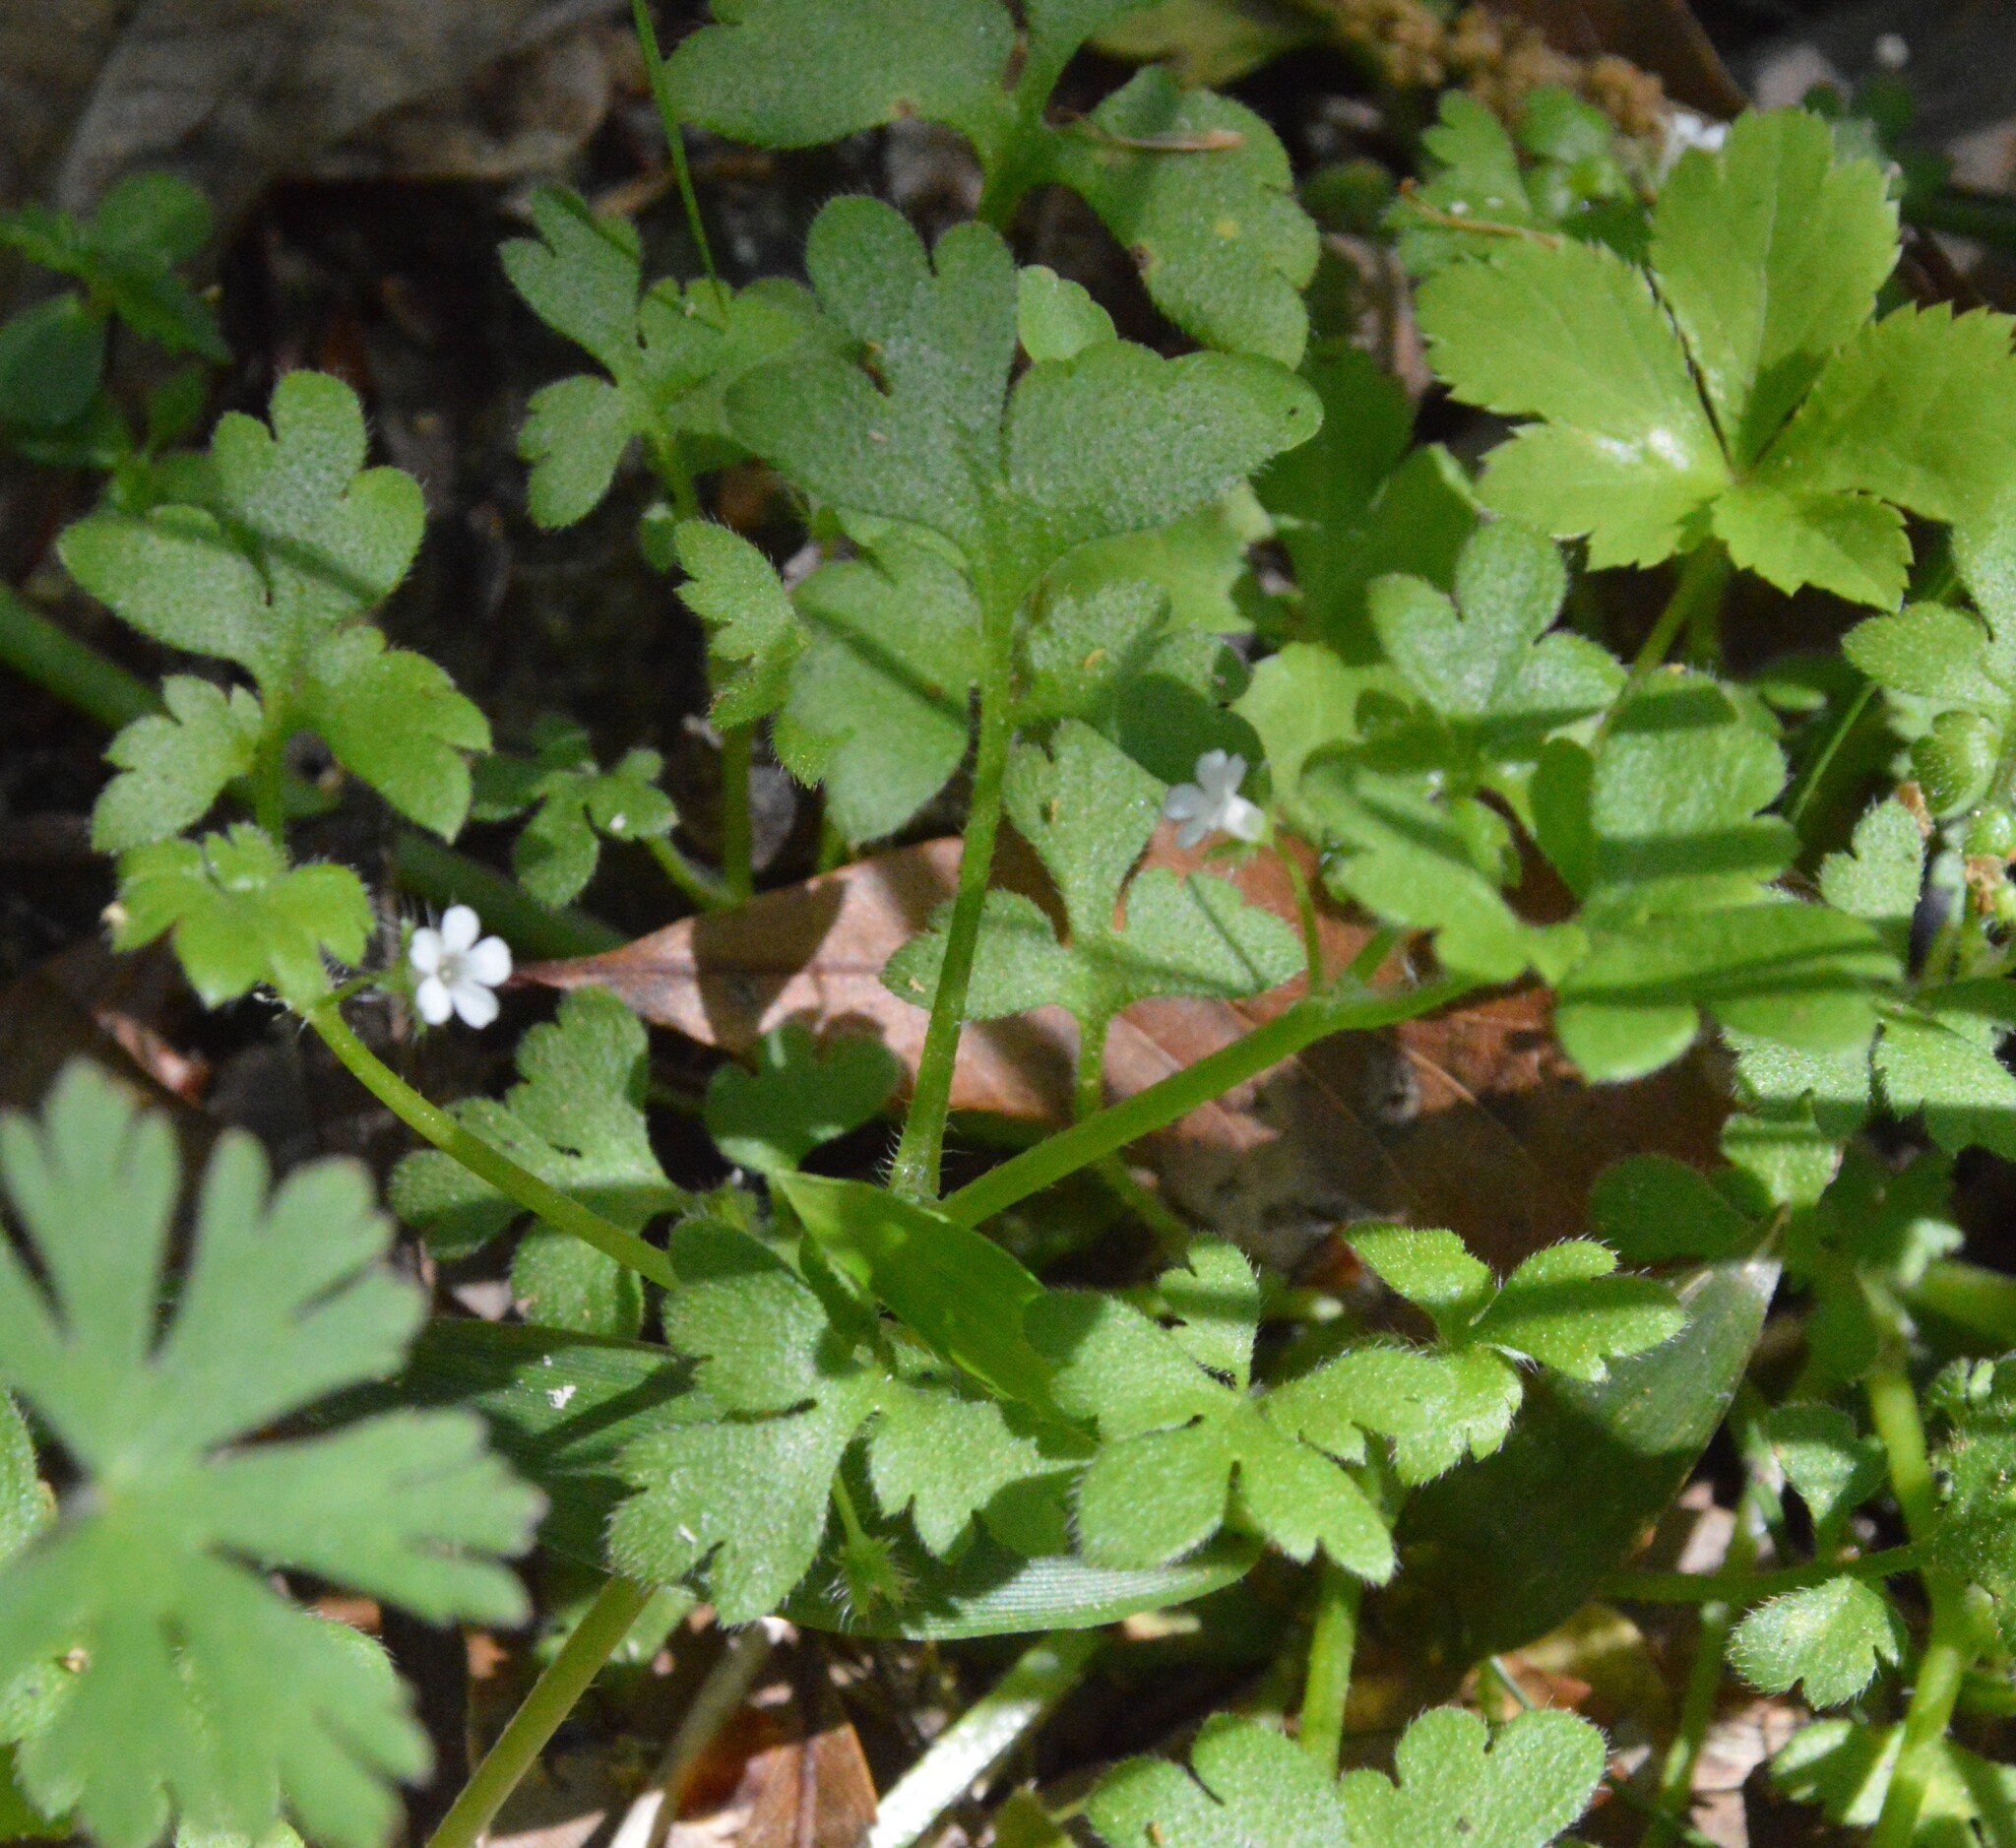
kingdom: Plantae
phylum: Tracheophyta
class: Magnoliopsida
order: Boraginales
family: Hydrophyllaceae
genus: Nemophila
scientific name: Nemophila aphylla
